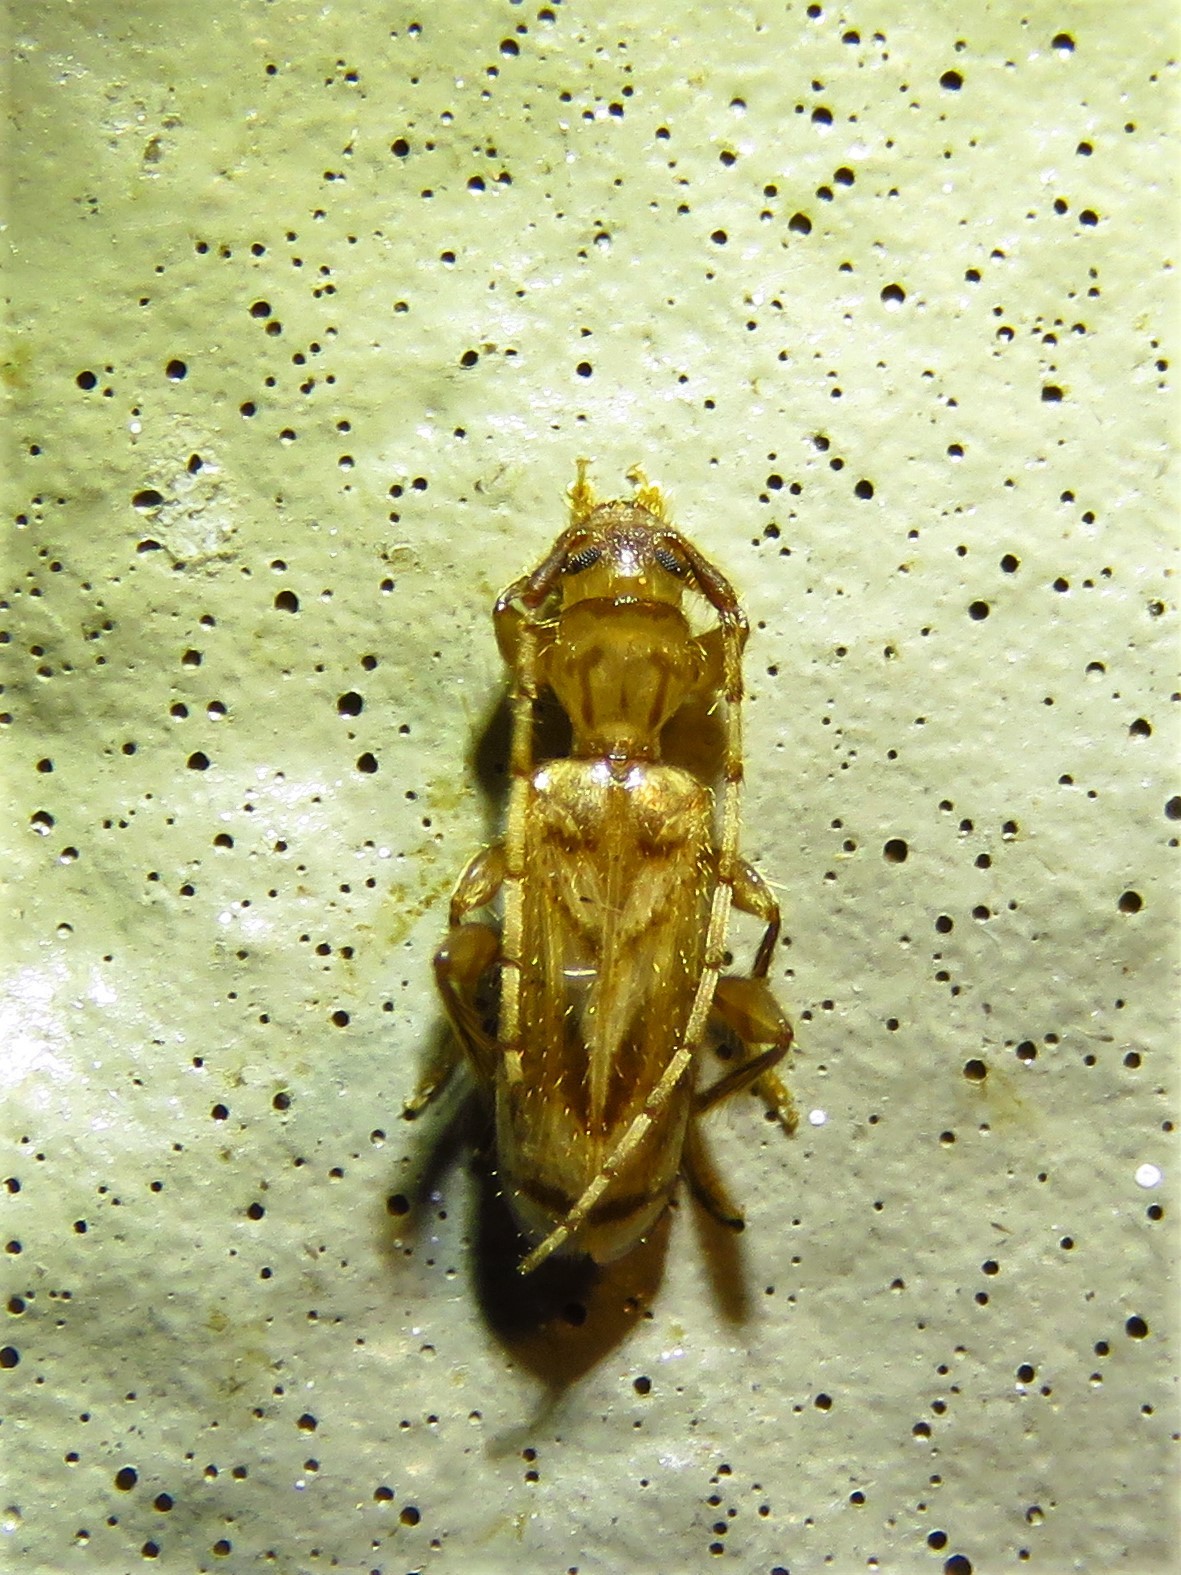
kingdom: Animalia
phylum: Arthropoda
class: Insecta
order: Coleoptera
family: Cerambycidae
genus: Obrium
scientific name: Obrium maculatum
